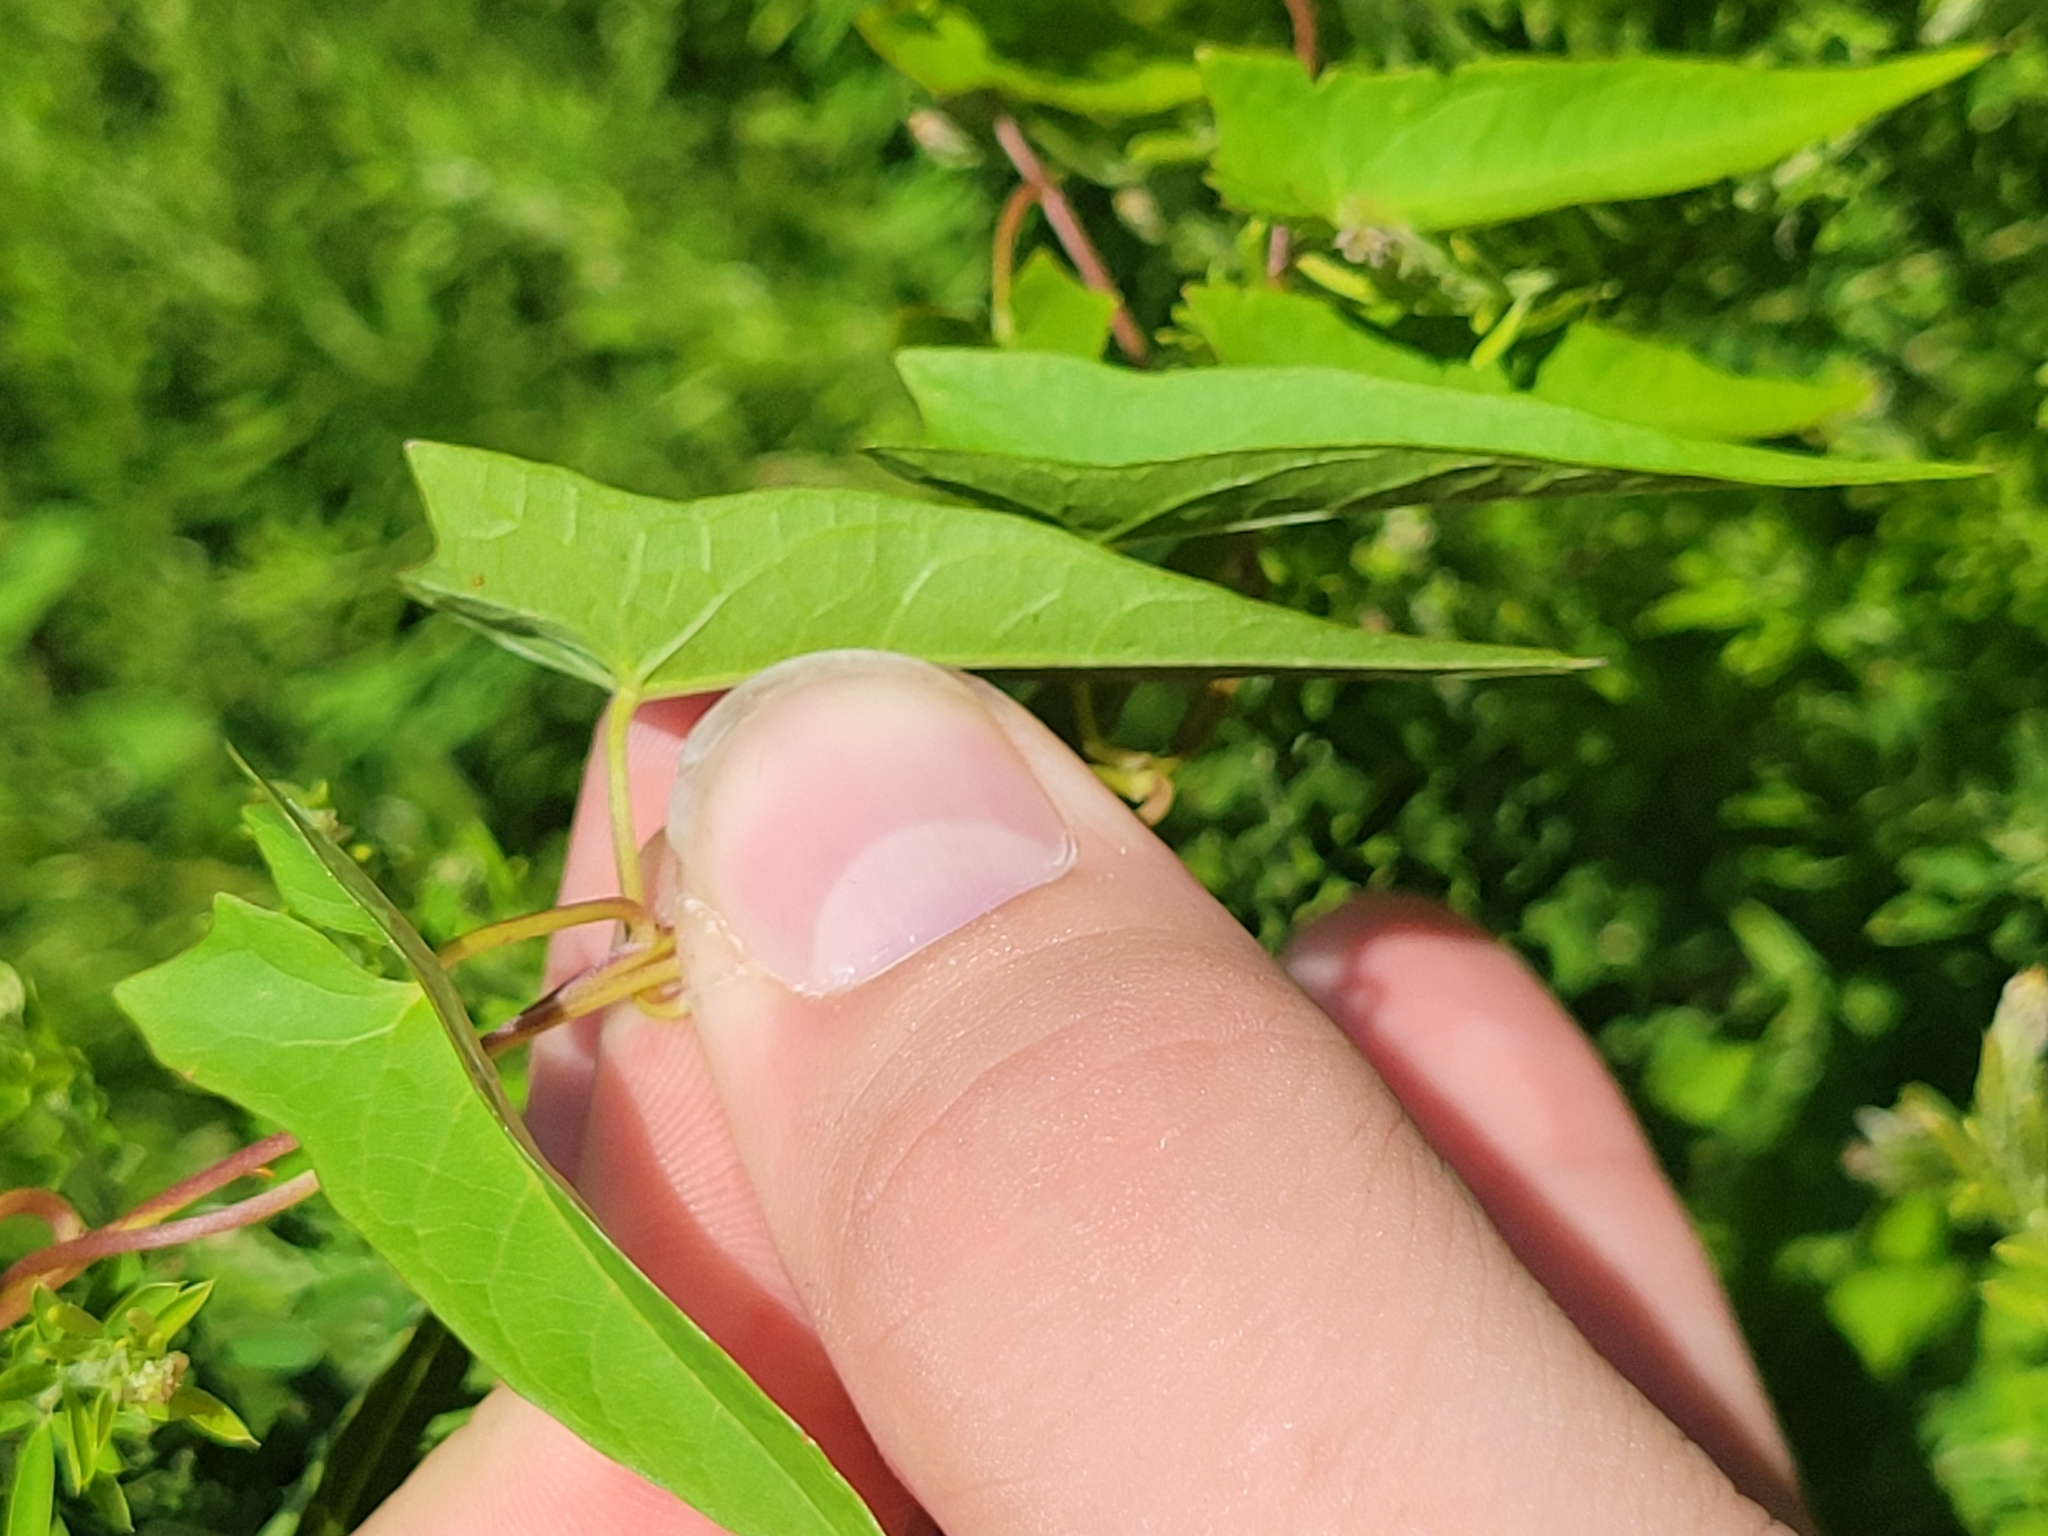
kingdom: Plantae
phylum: Tracheophyta
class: Magnoliopsida
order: Solanales
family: Convolvulaceae
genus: Calystegia
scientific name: Calystegia sepium
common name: Hedge bindweed
